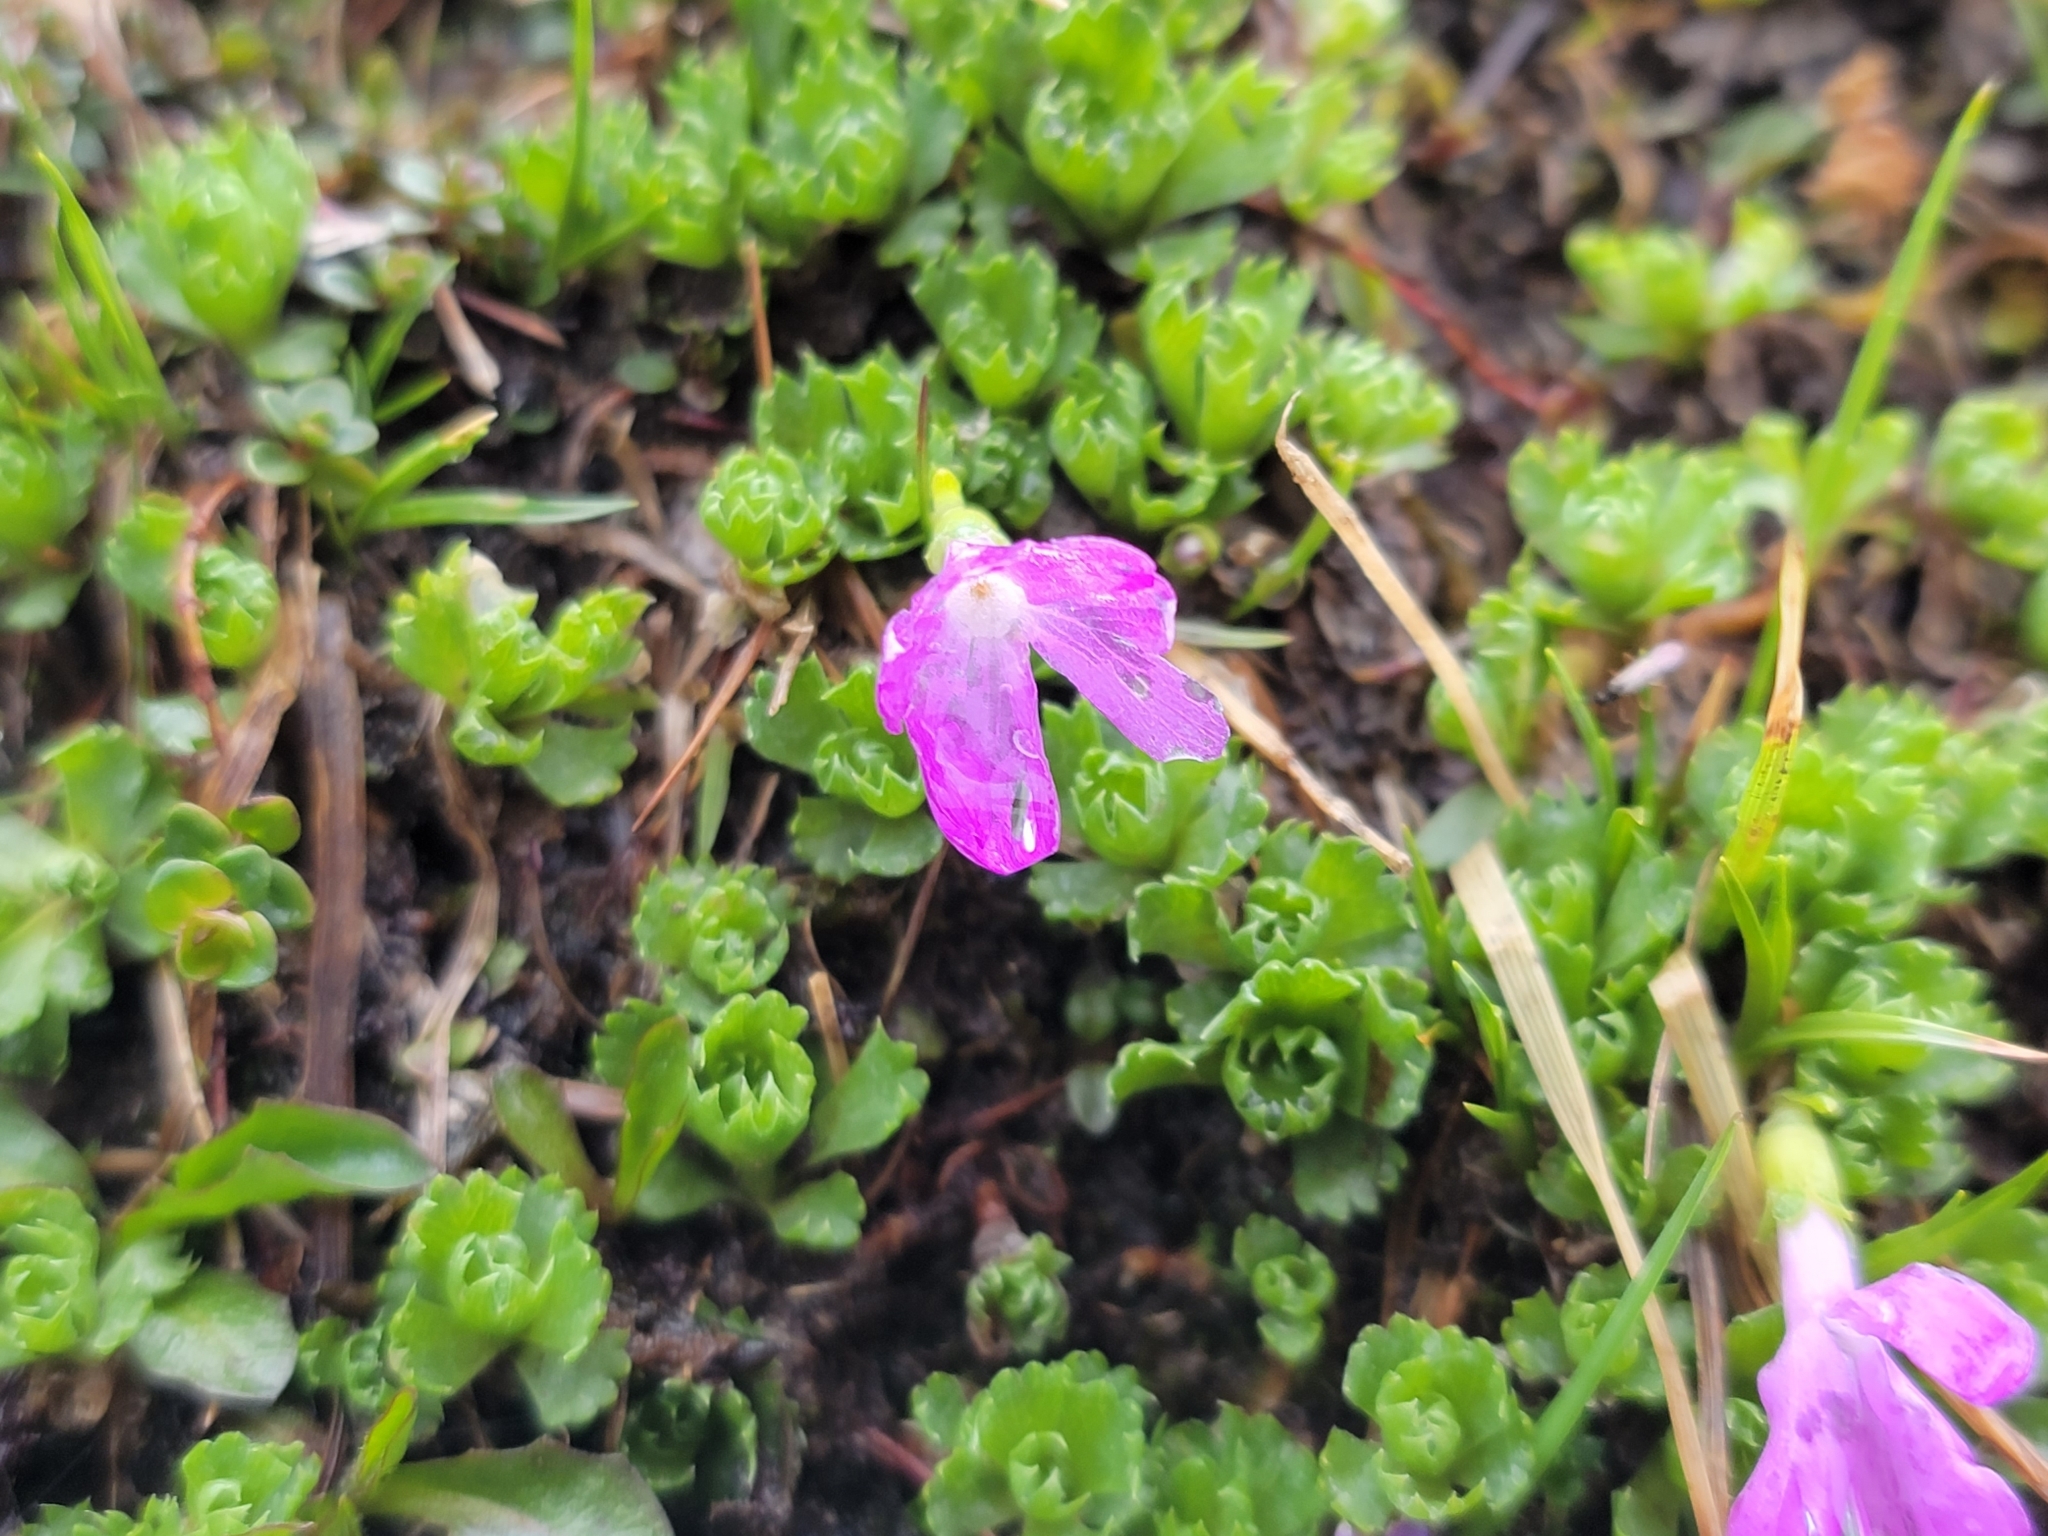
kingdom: Plantae
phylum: Tracheophyta
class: Magnoliopsida
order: Ericales
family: Primulaceae
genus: Primula
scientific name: Primula minima
